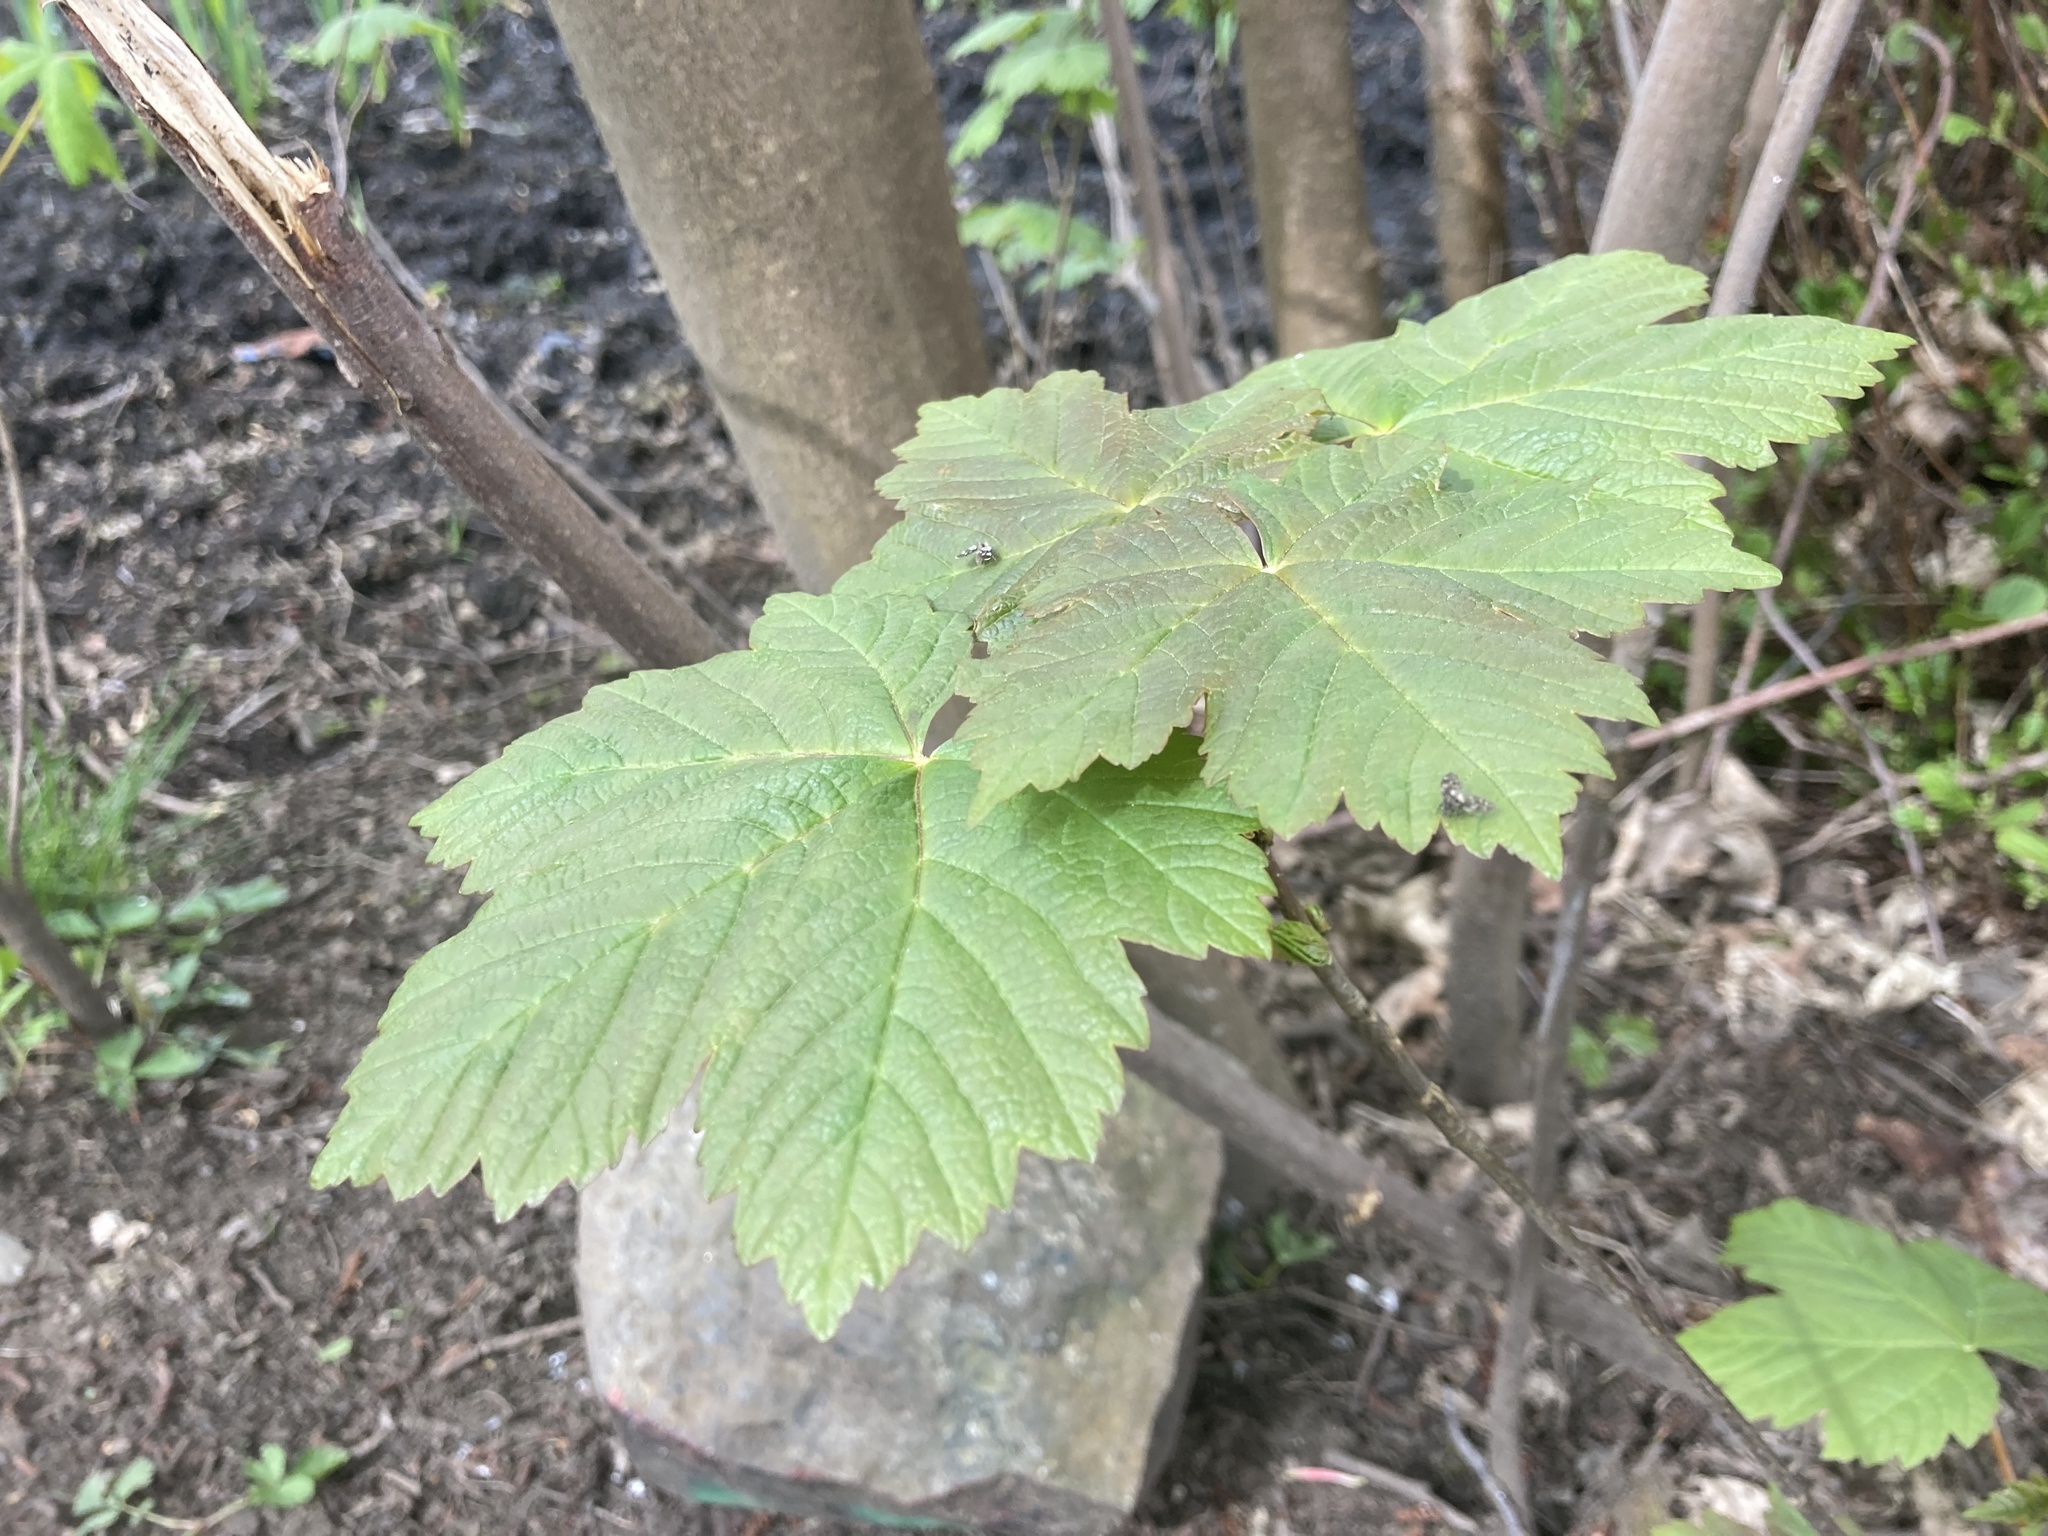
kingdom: Plantae
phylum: Tracheophyta
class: Magnoliopsida
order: Sapindales
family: Sapindaceae
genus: Acer
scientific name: Acer pseudoplatanus
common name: Sycamore
